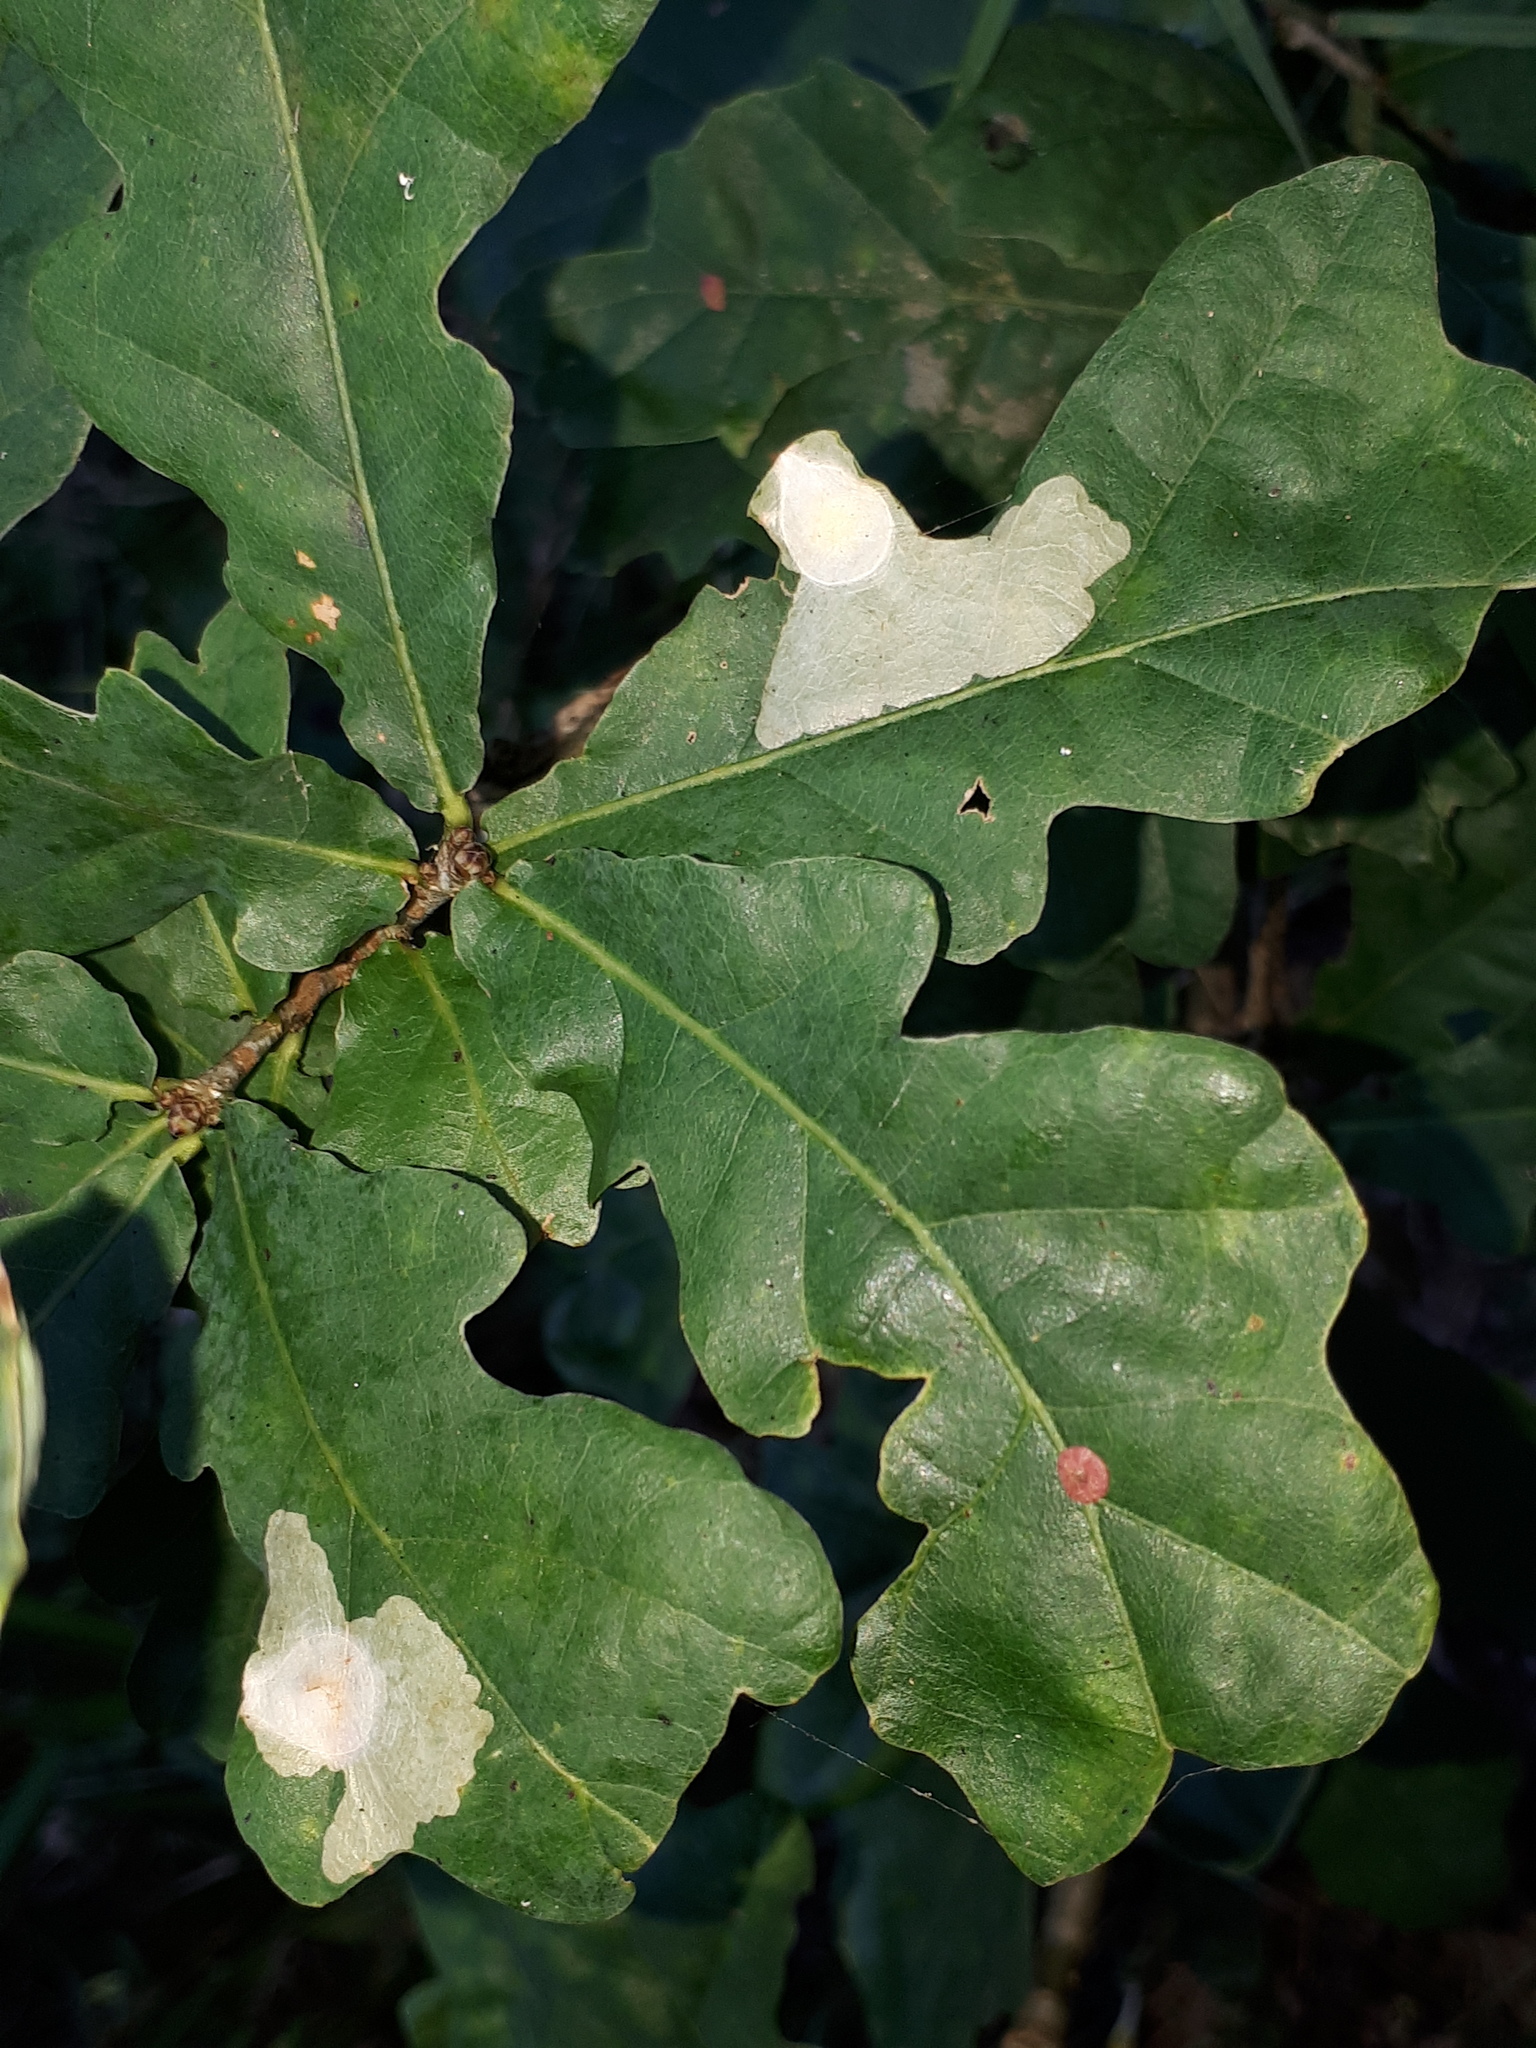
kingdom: Animalia
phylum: Arthropoda
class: Insecta
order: Lepidoptera
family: Tischeriidae
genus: Tischeria
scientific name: Tischeria ekebladella
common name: Oak carl
